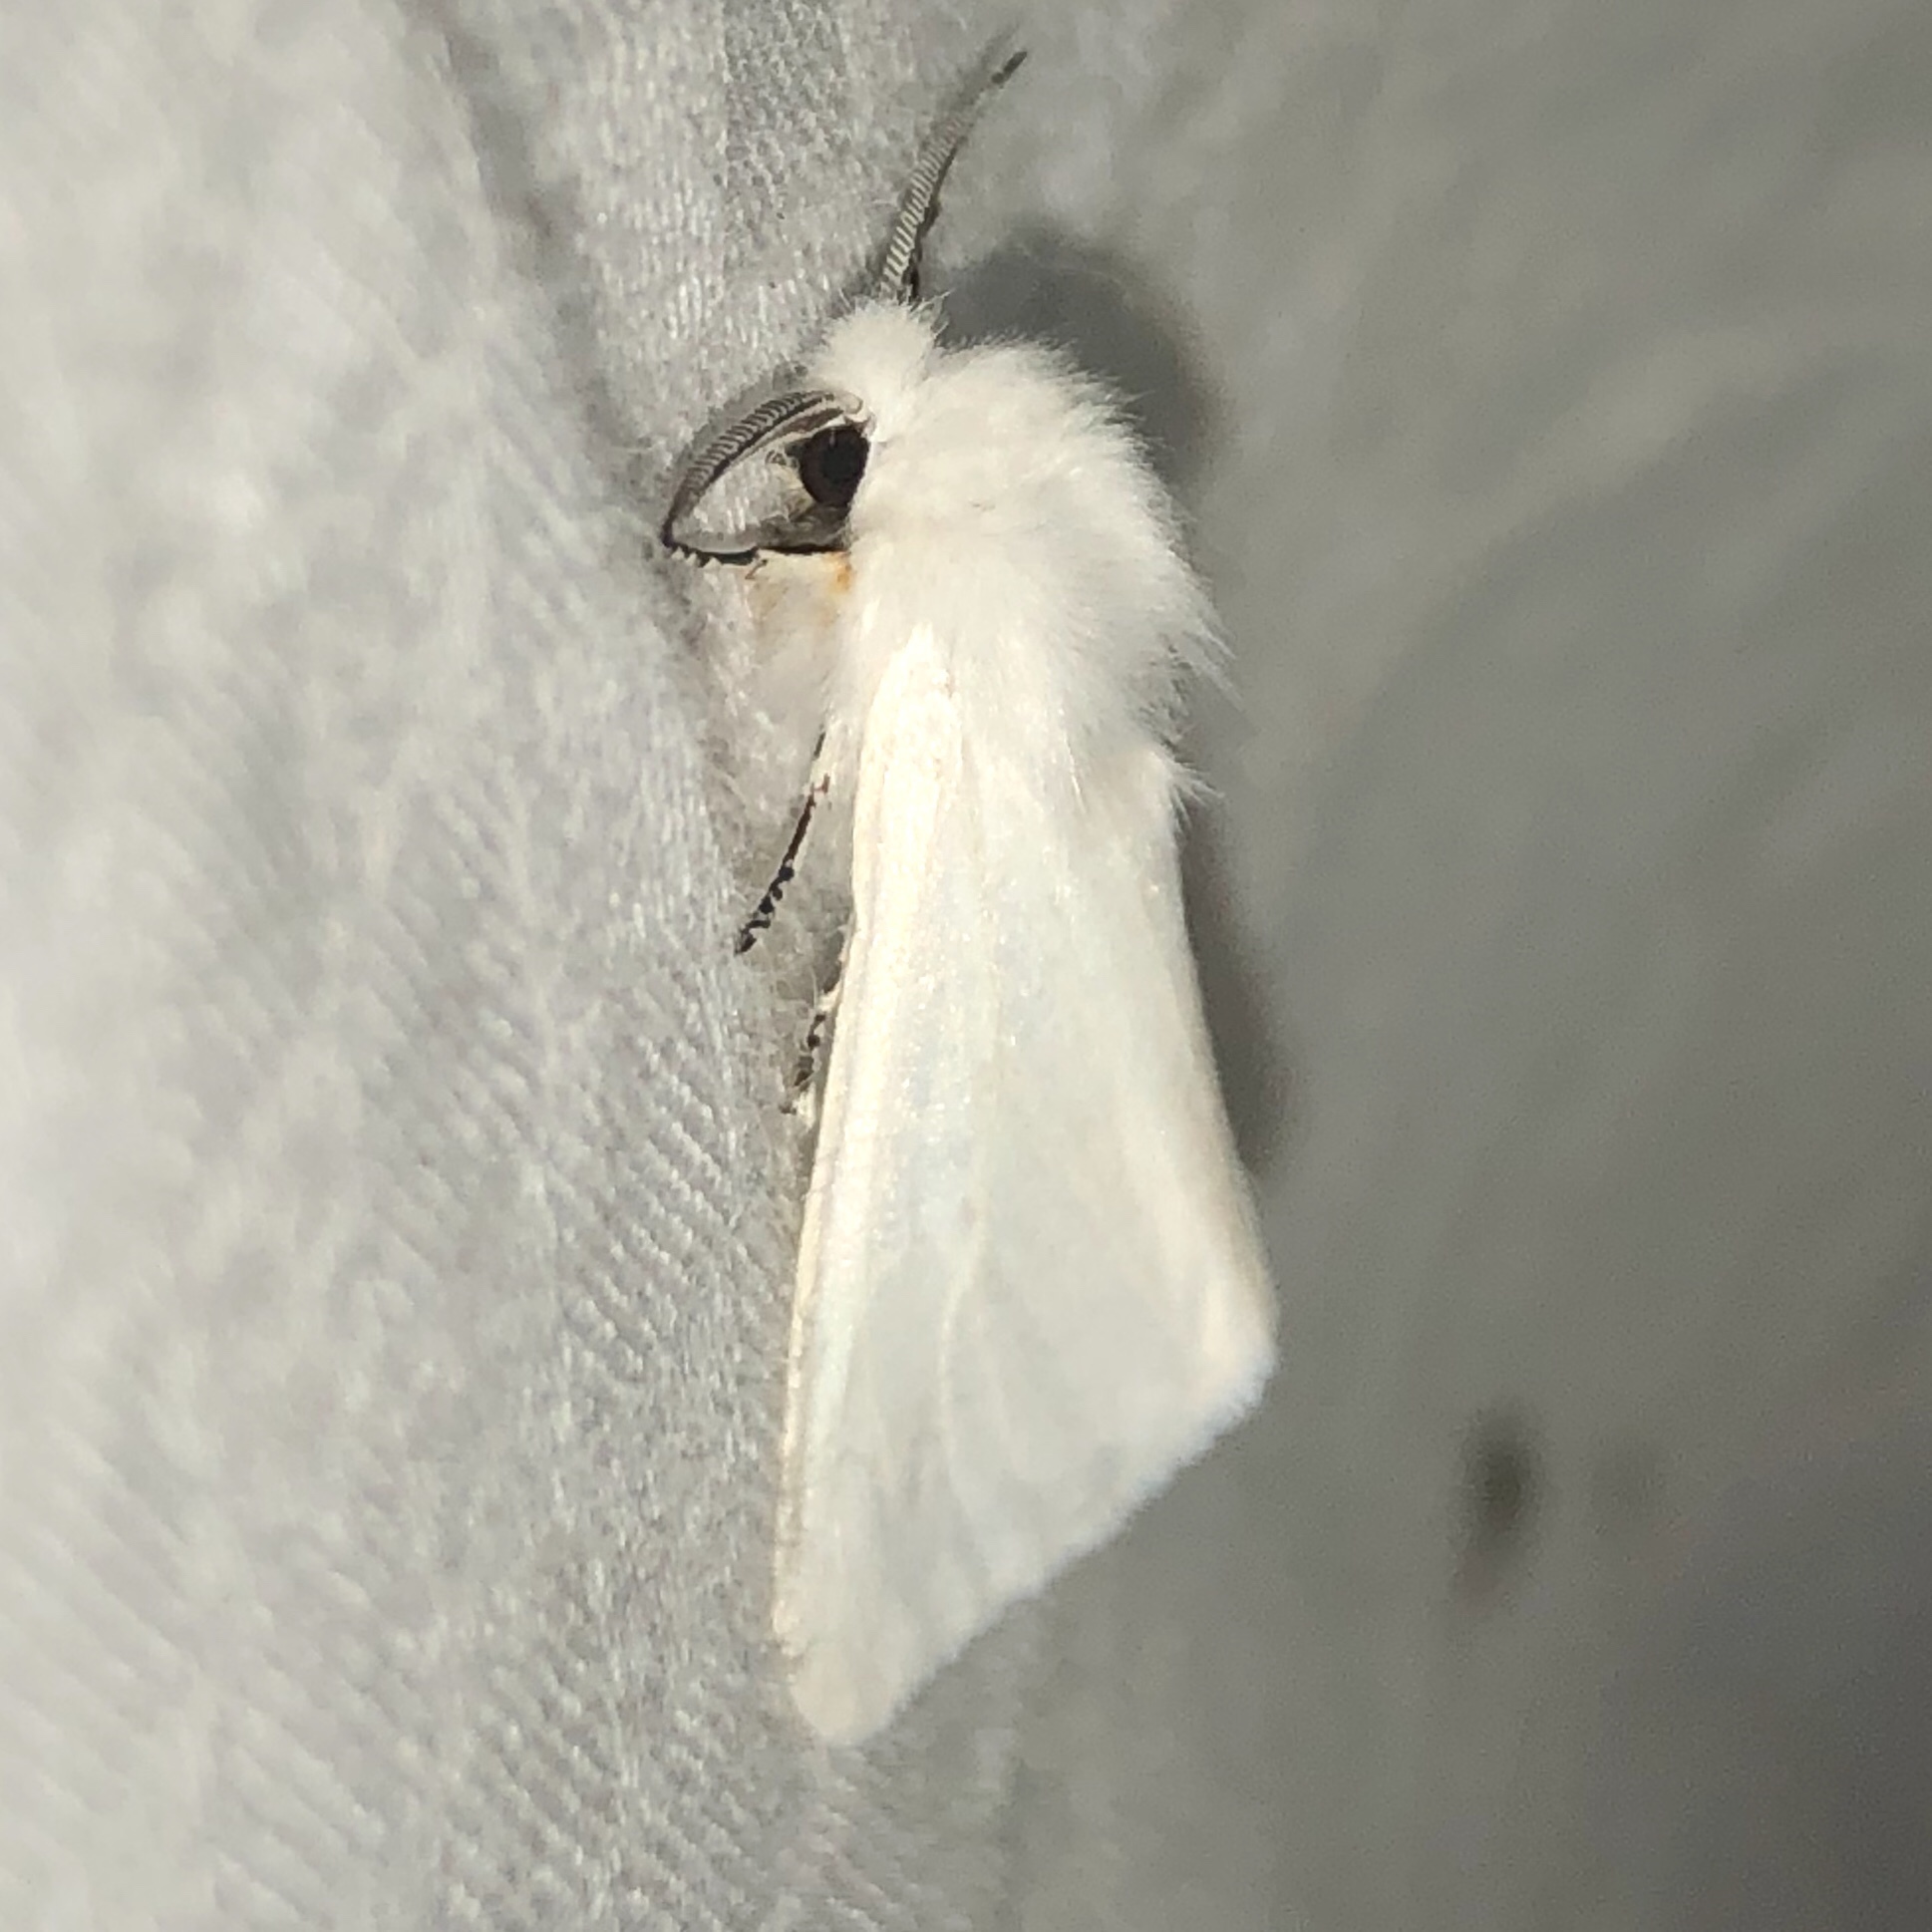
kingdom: Animalia
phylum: Arthropoda
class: Insecta
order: Lepidoptera
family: Erebidae
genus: Hyphantria
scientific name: Hyphantria cunea
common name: American white moth
